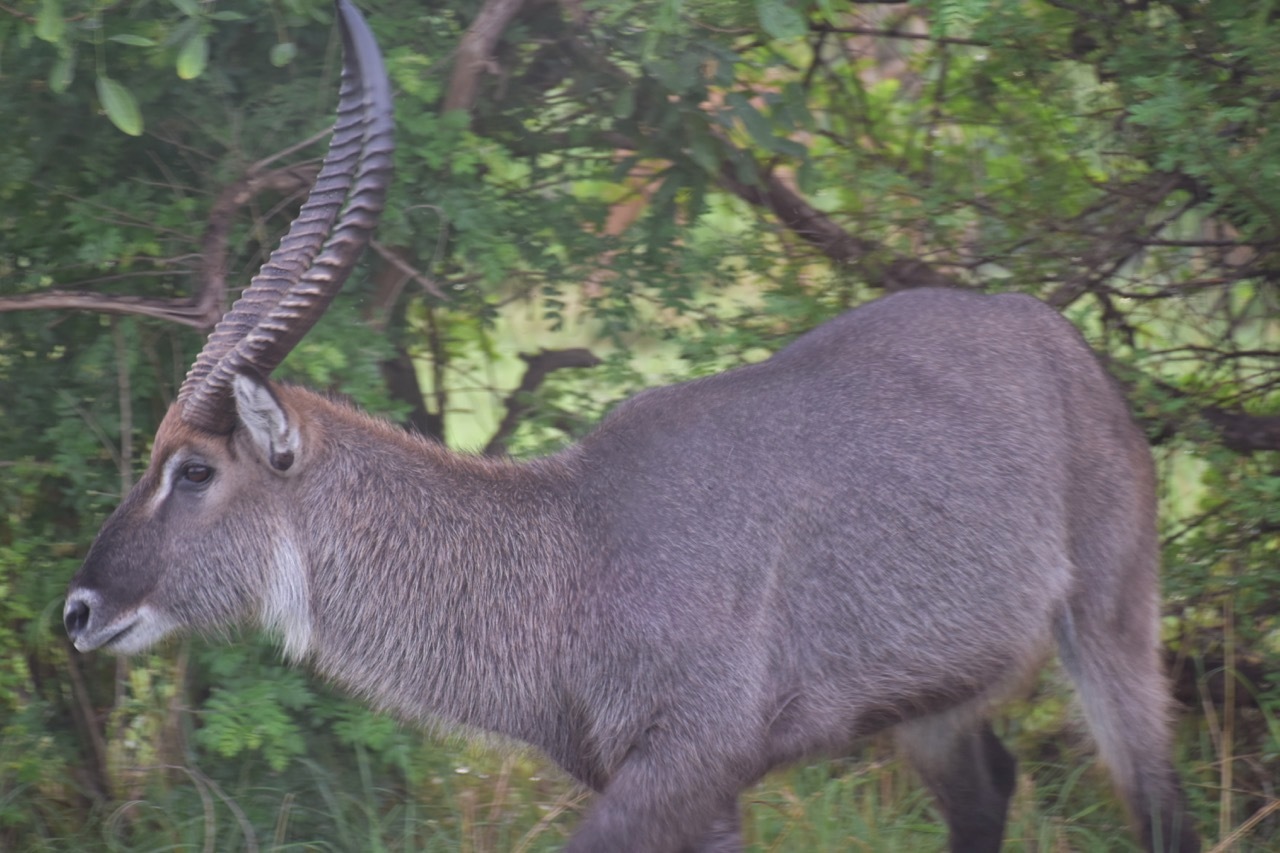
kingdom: Animalia
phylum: Chordata
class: Mammalia
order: Artiodactyla
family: Bovidae
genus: Kobus
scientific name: Kobus ellipsiprymnus
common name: Waterbuck
